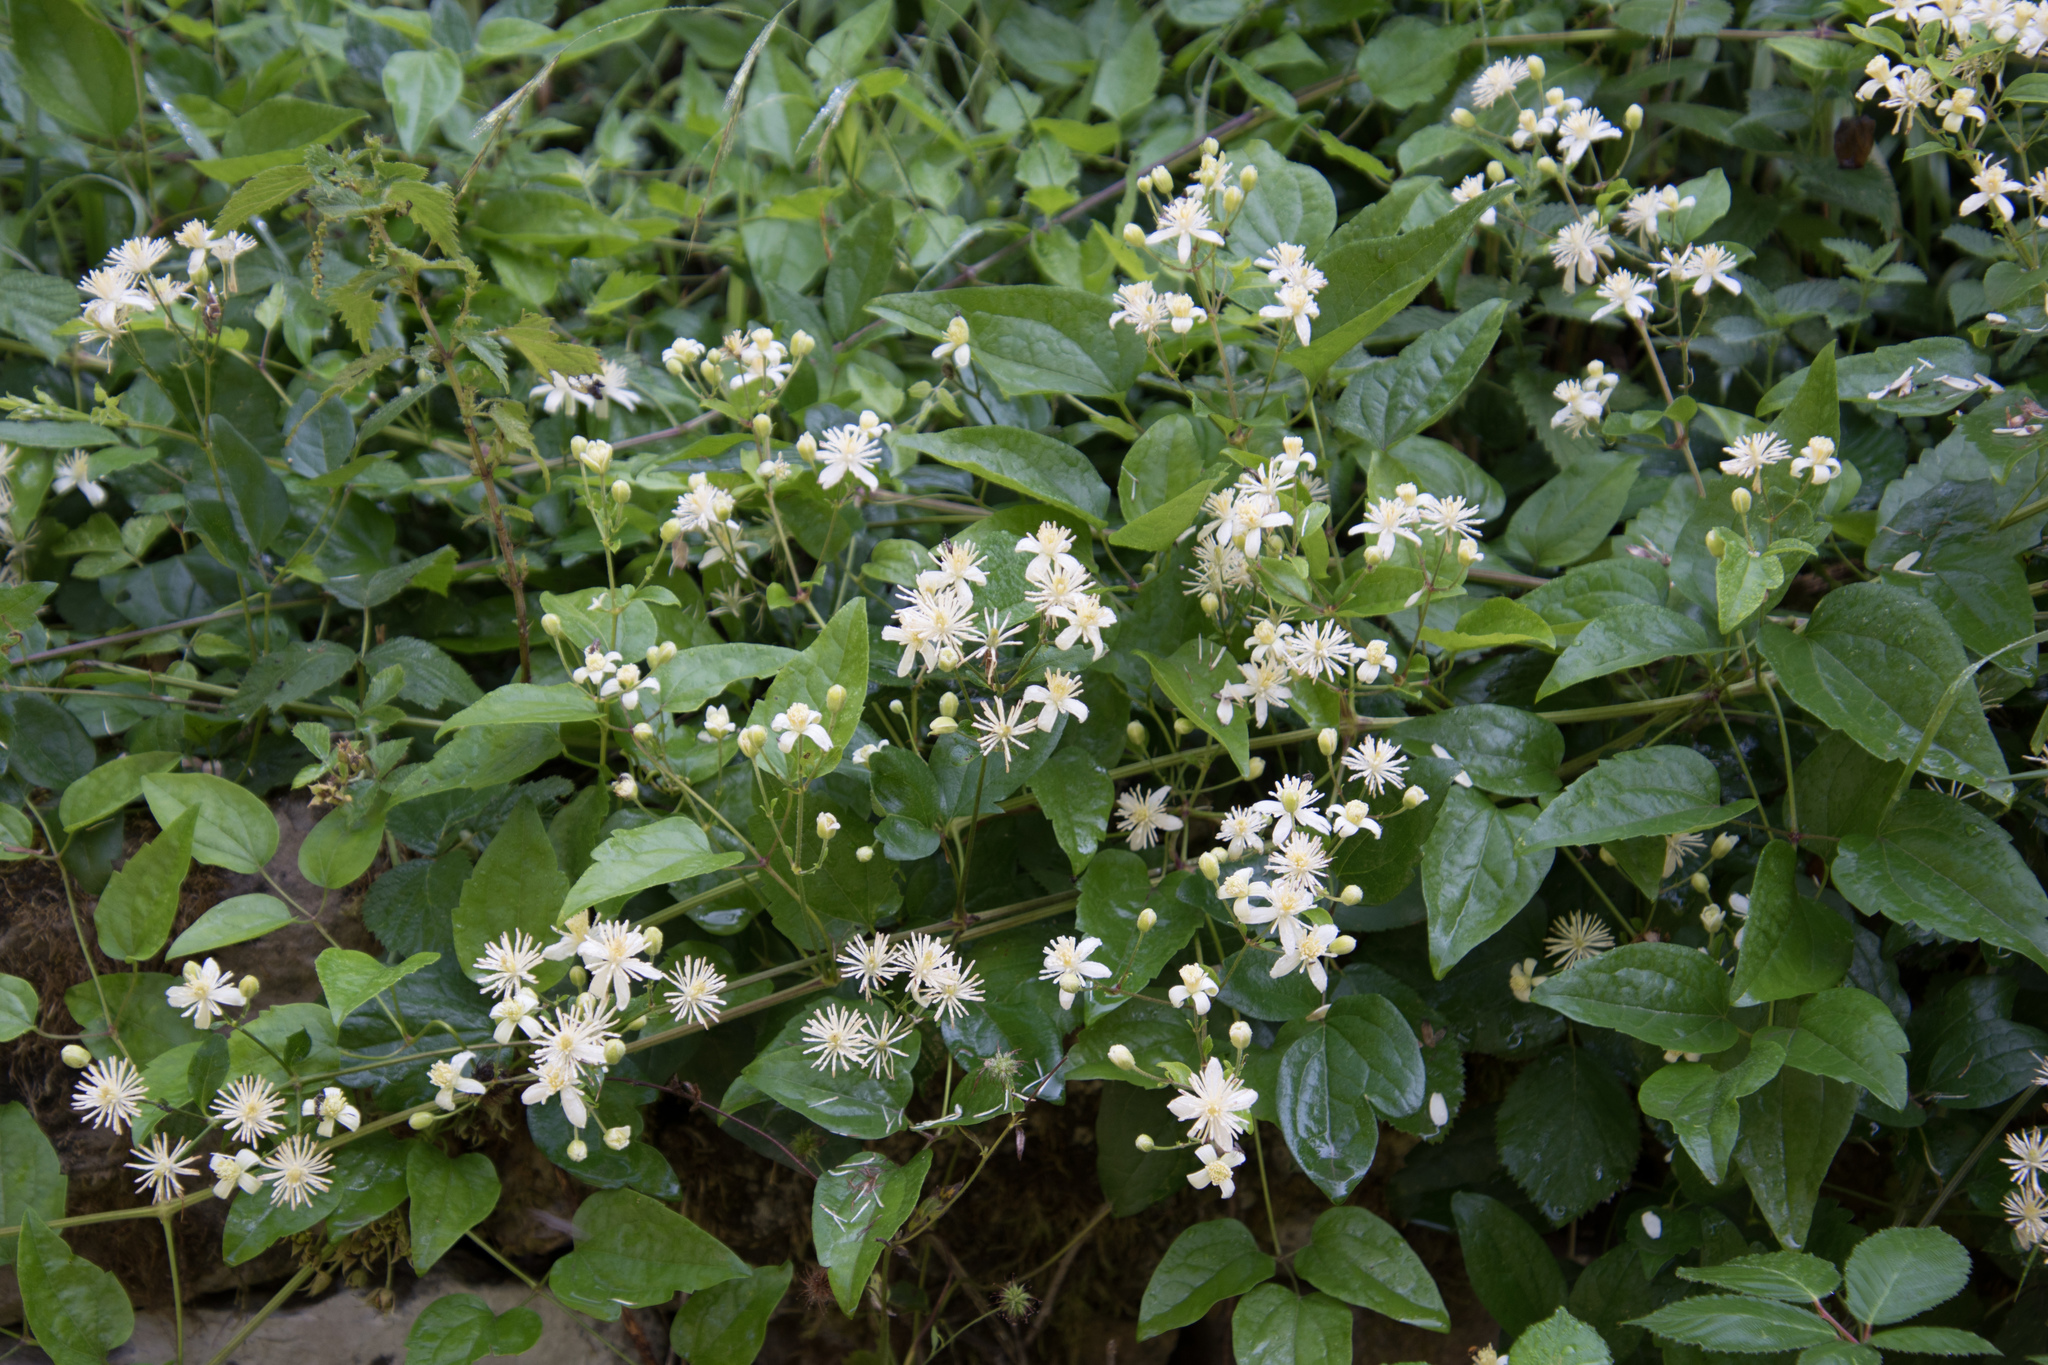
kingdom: Plantae
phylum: Tracheophyta
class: Magnoliopsida
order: Ranunculales
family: Ranunculaceae
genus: Clematis
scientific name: Clematis vitalba
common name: Evergreen clematis
